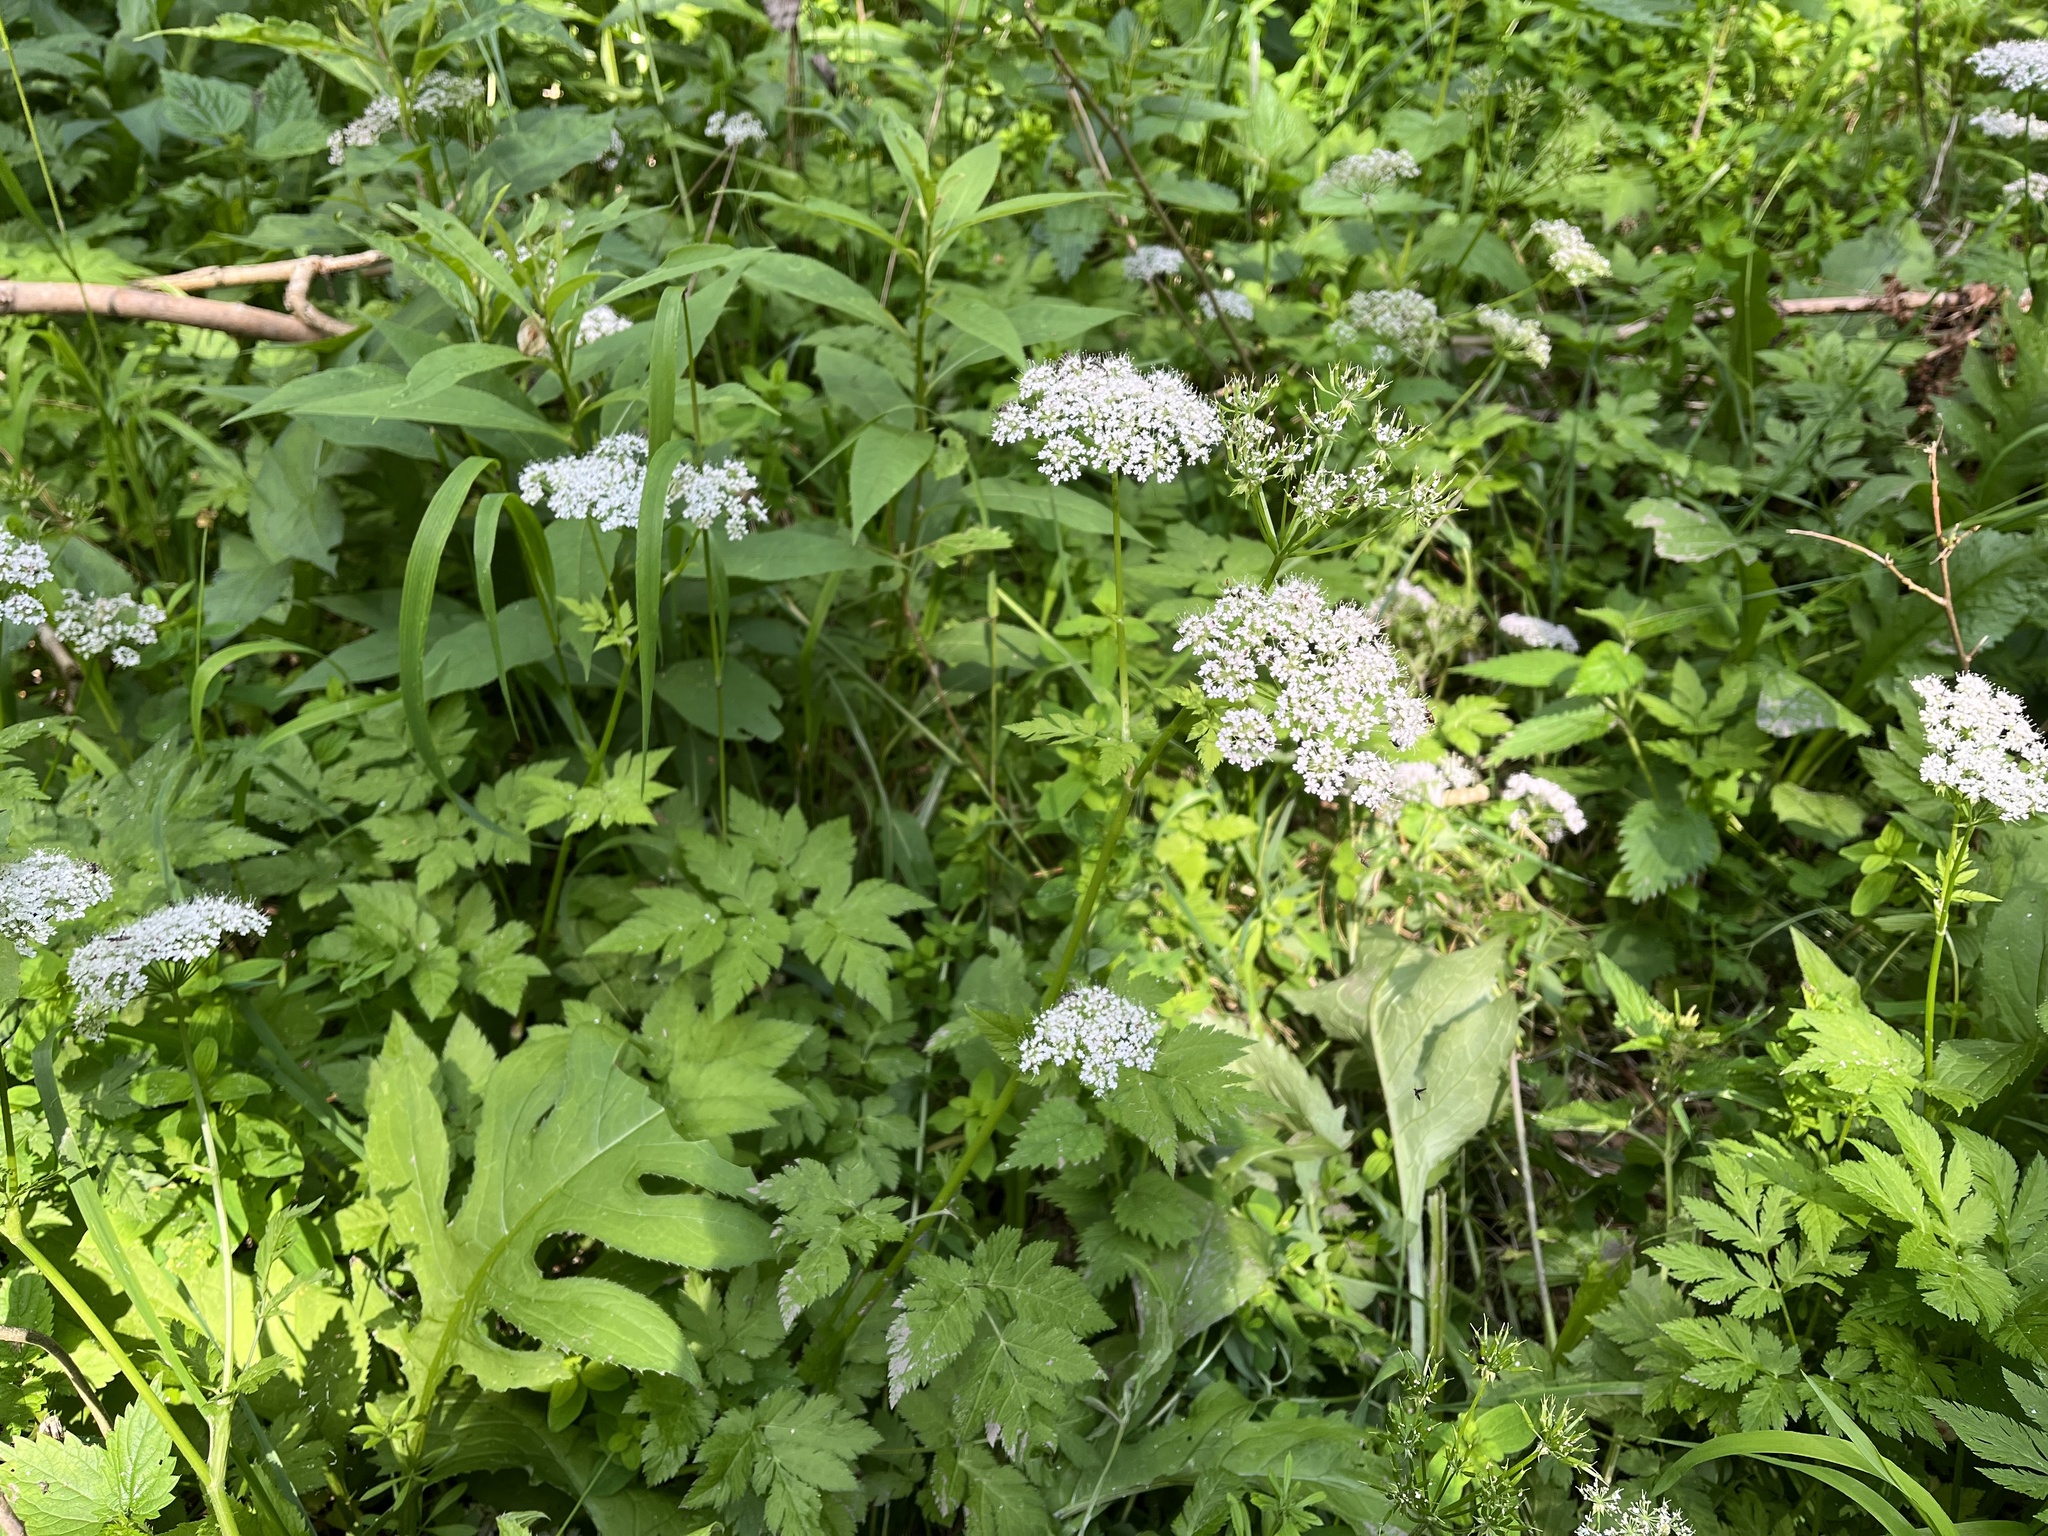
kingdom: Plantae
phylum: Tracheophyta
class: Magnoliopsida
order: Apiales
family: Apiaceae
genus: Chaerophyllum
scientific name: Chaerophyllum hirsutum
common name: Hairy chervil
